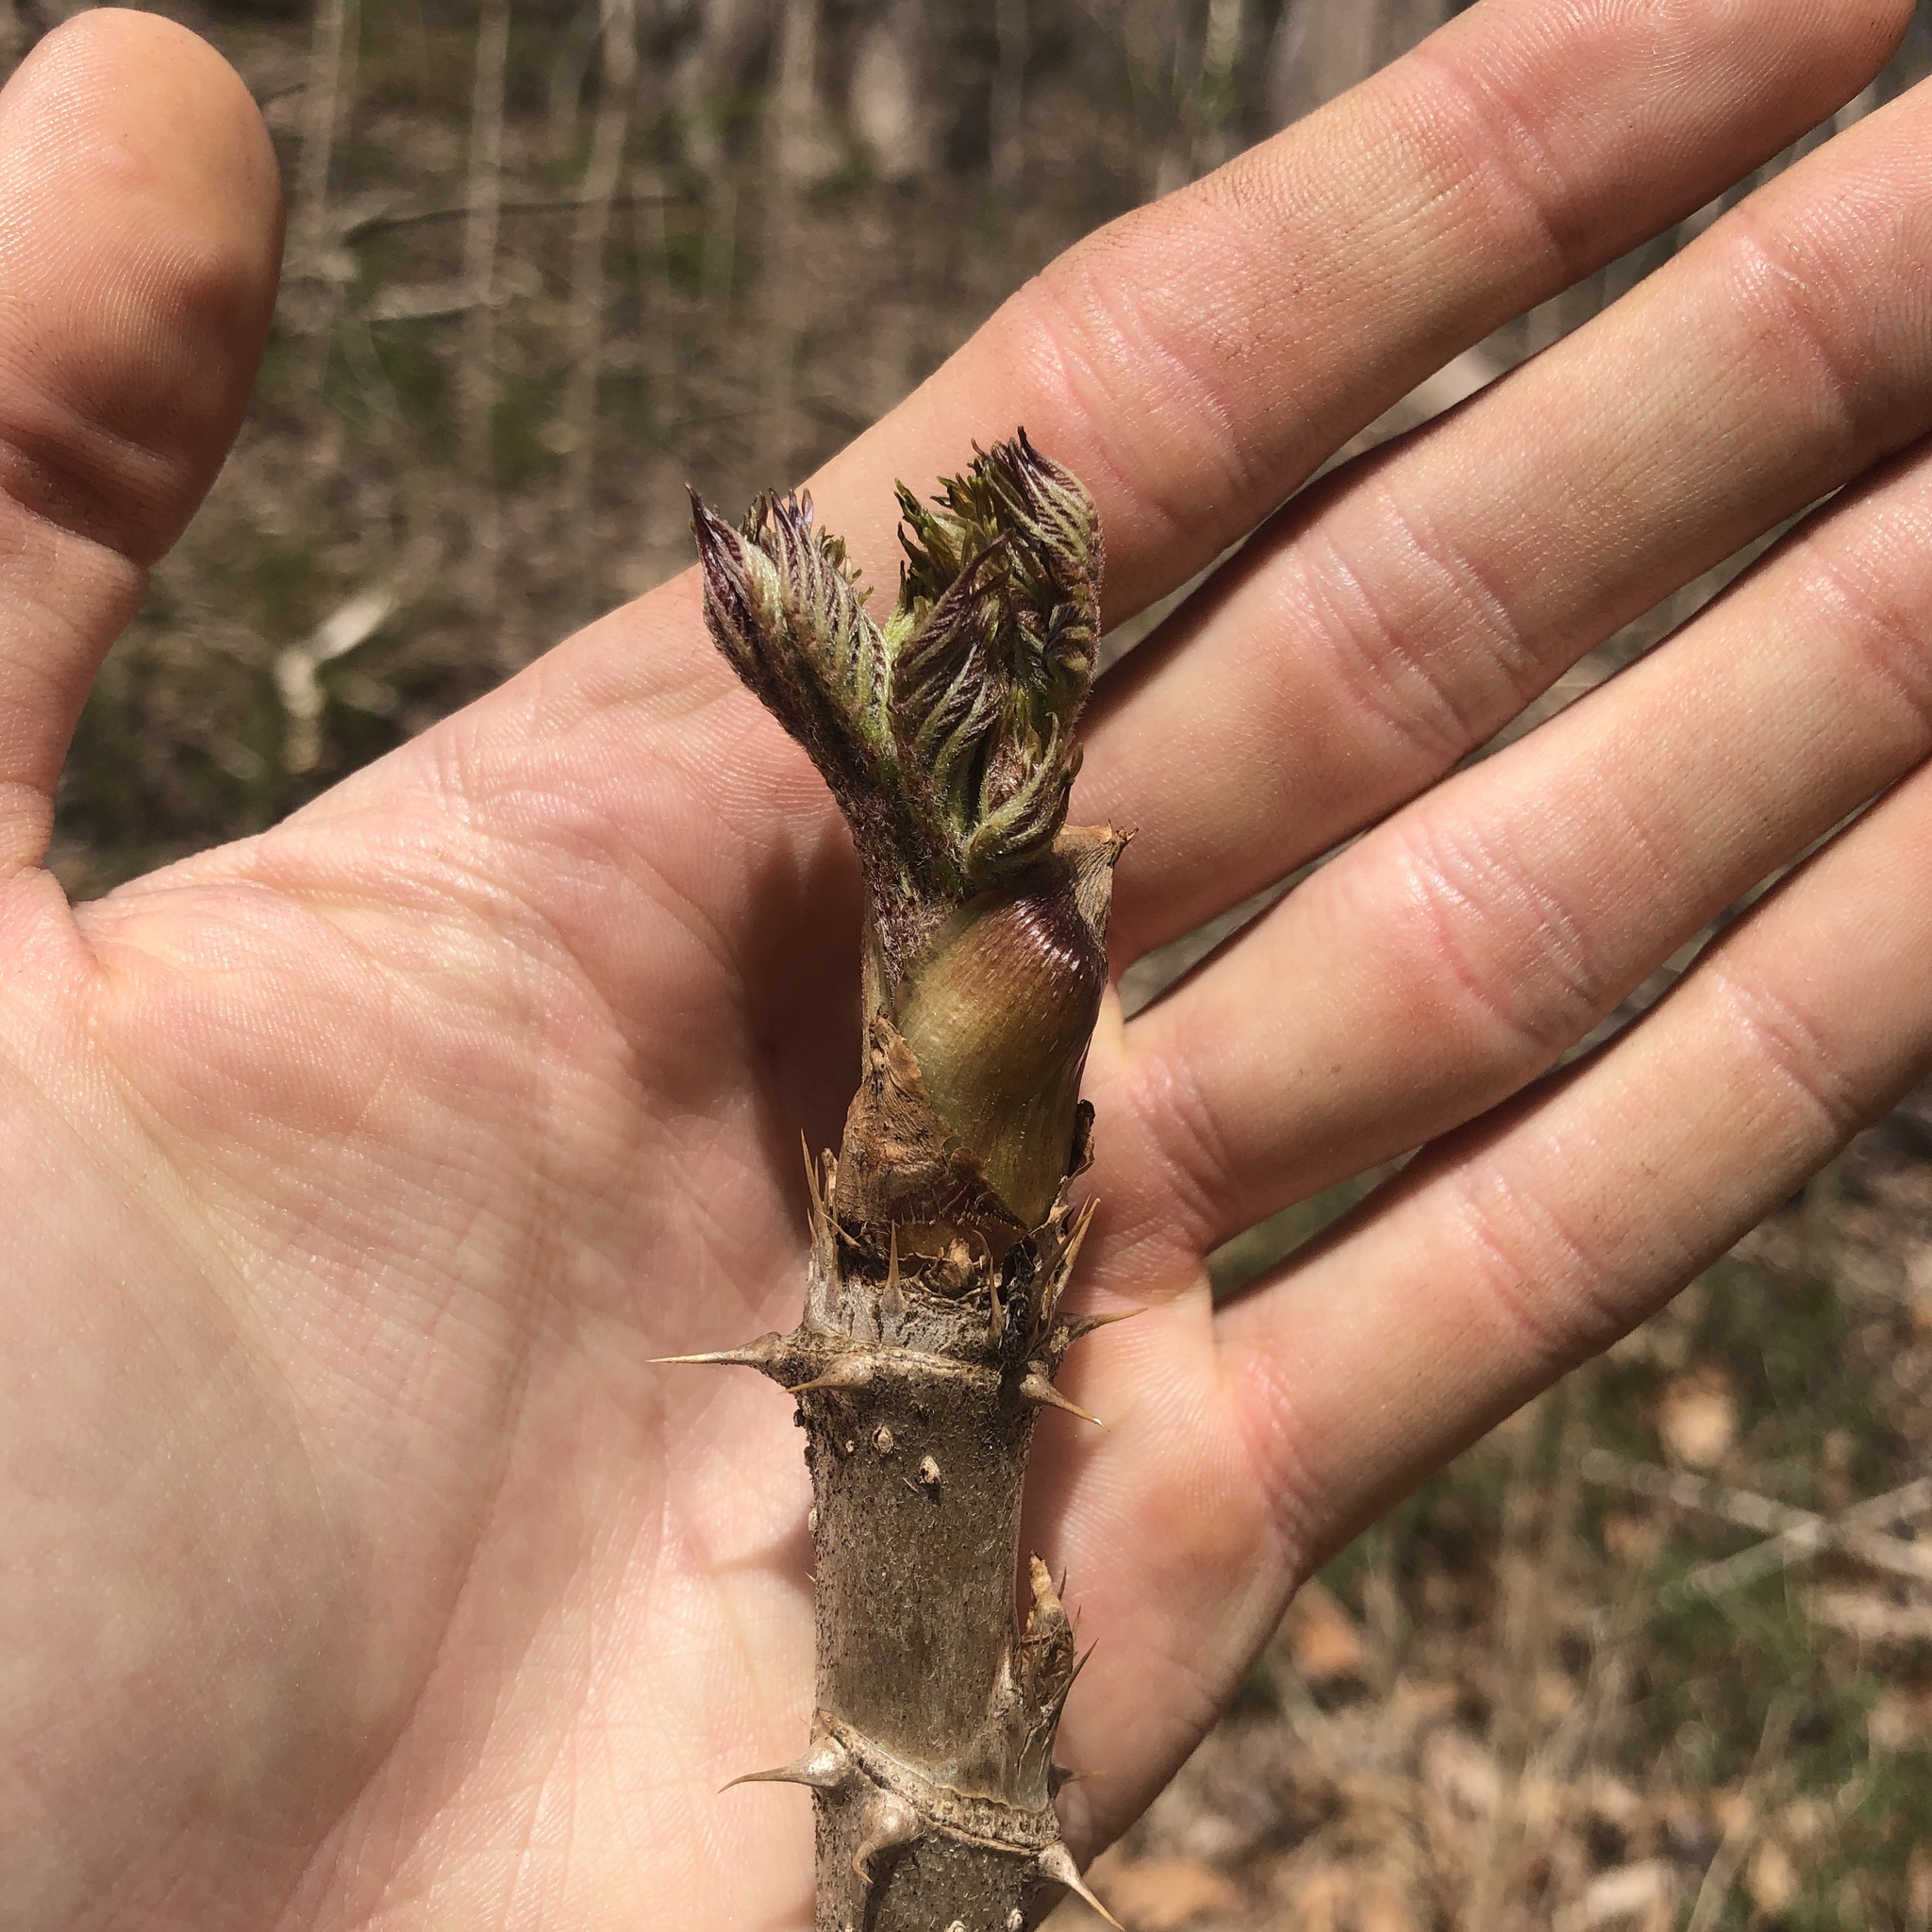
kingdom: Plantae
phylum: Tracheophyta
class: Magnoliopsida
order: Apiales
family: Araliaceae
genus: Aralia
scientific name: Aralia elata
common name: Japanese angelica-tree
